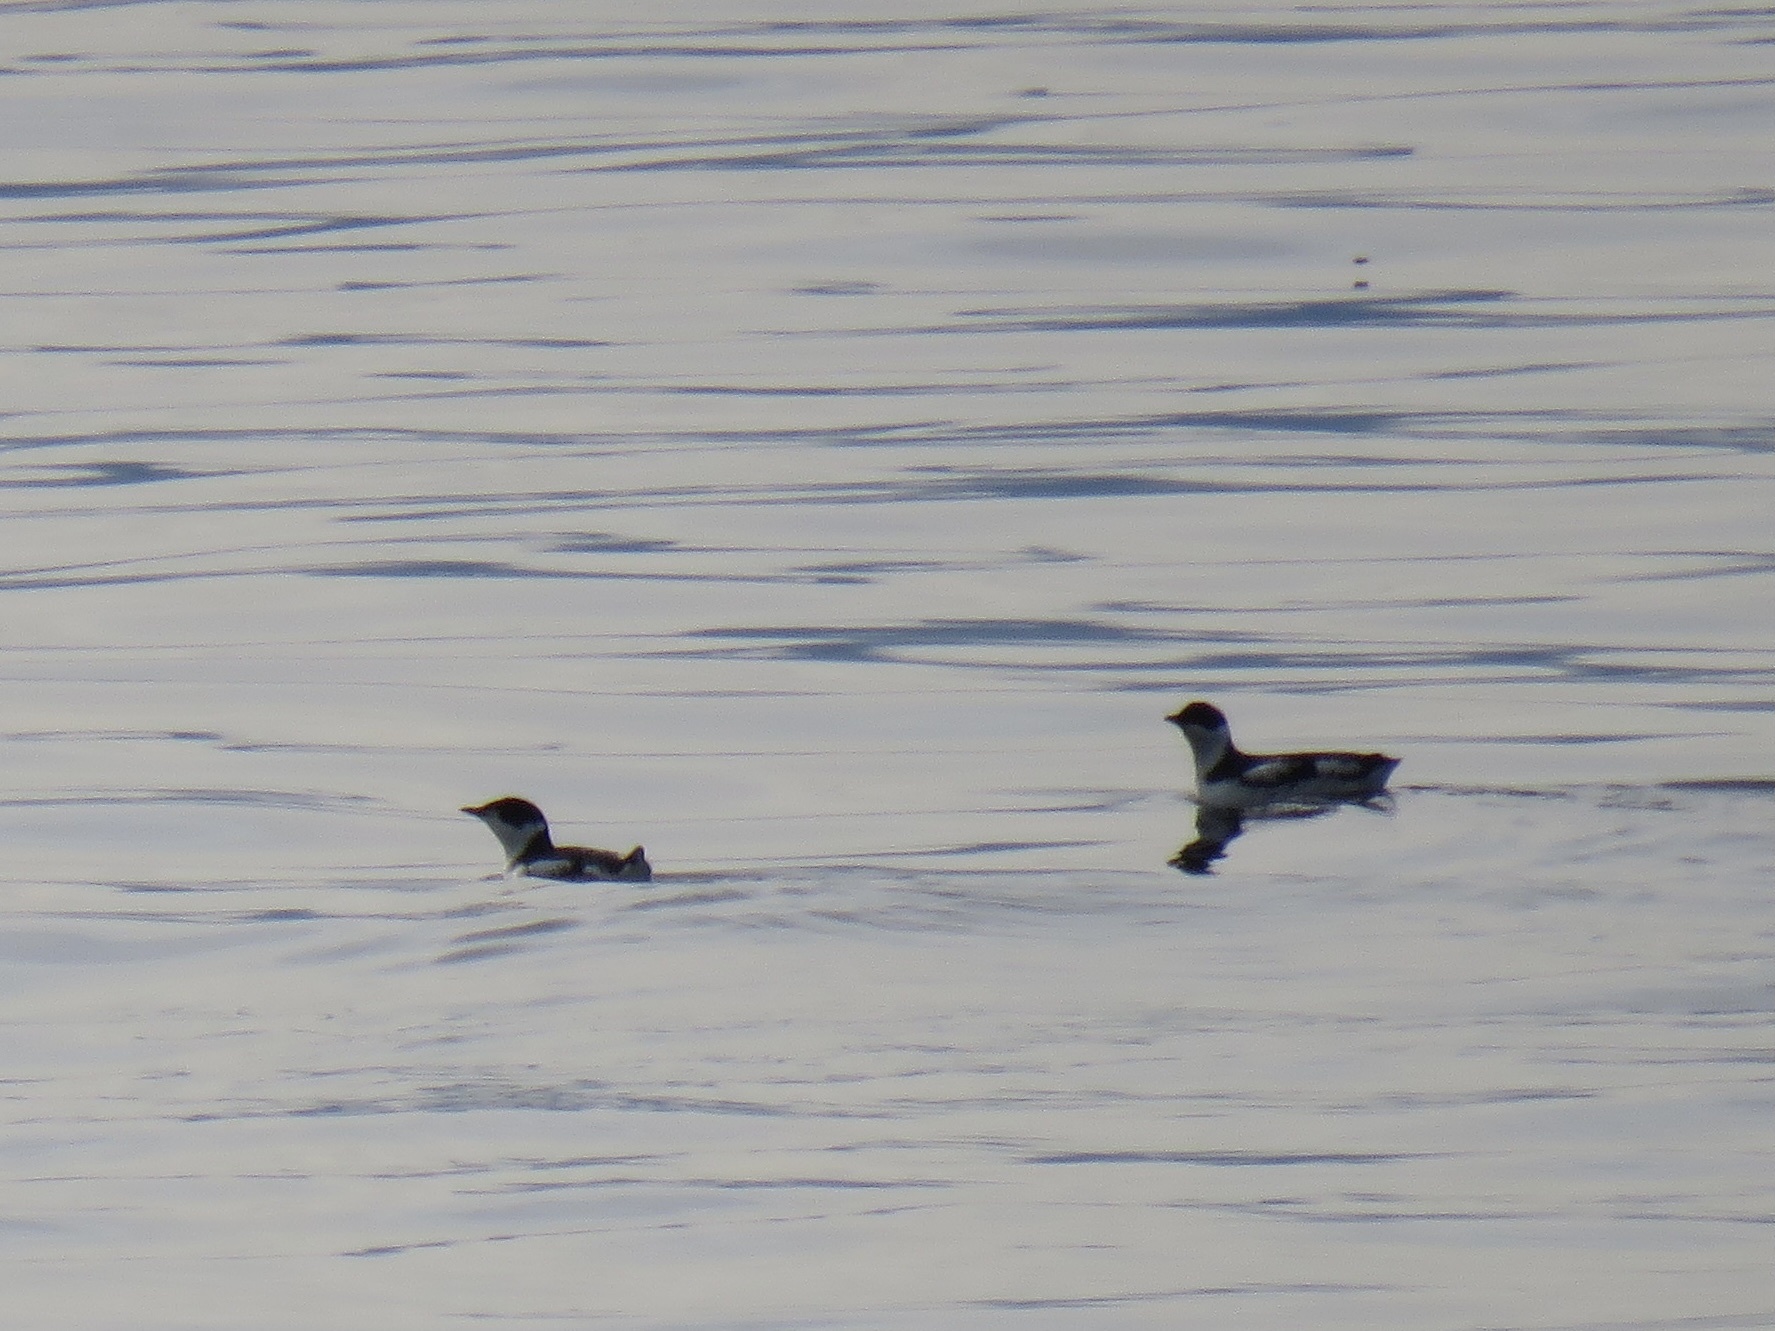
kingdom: Animalia
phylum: Chordata
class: Aves
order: Charadriiformes
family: Alcidae
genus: Brachyramphus
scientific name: Brachyramphus marmoratus
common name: Marbled murrelet
